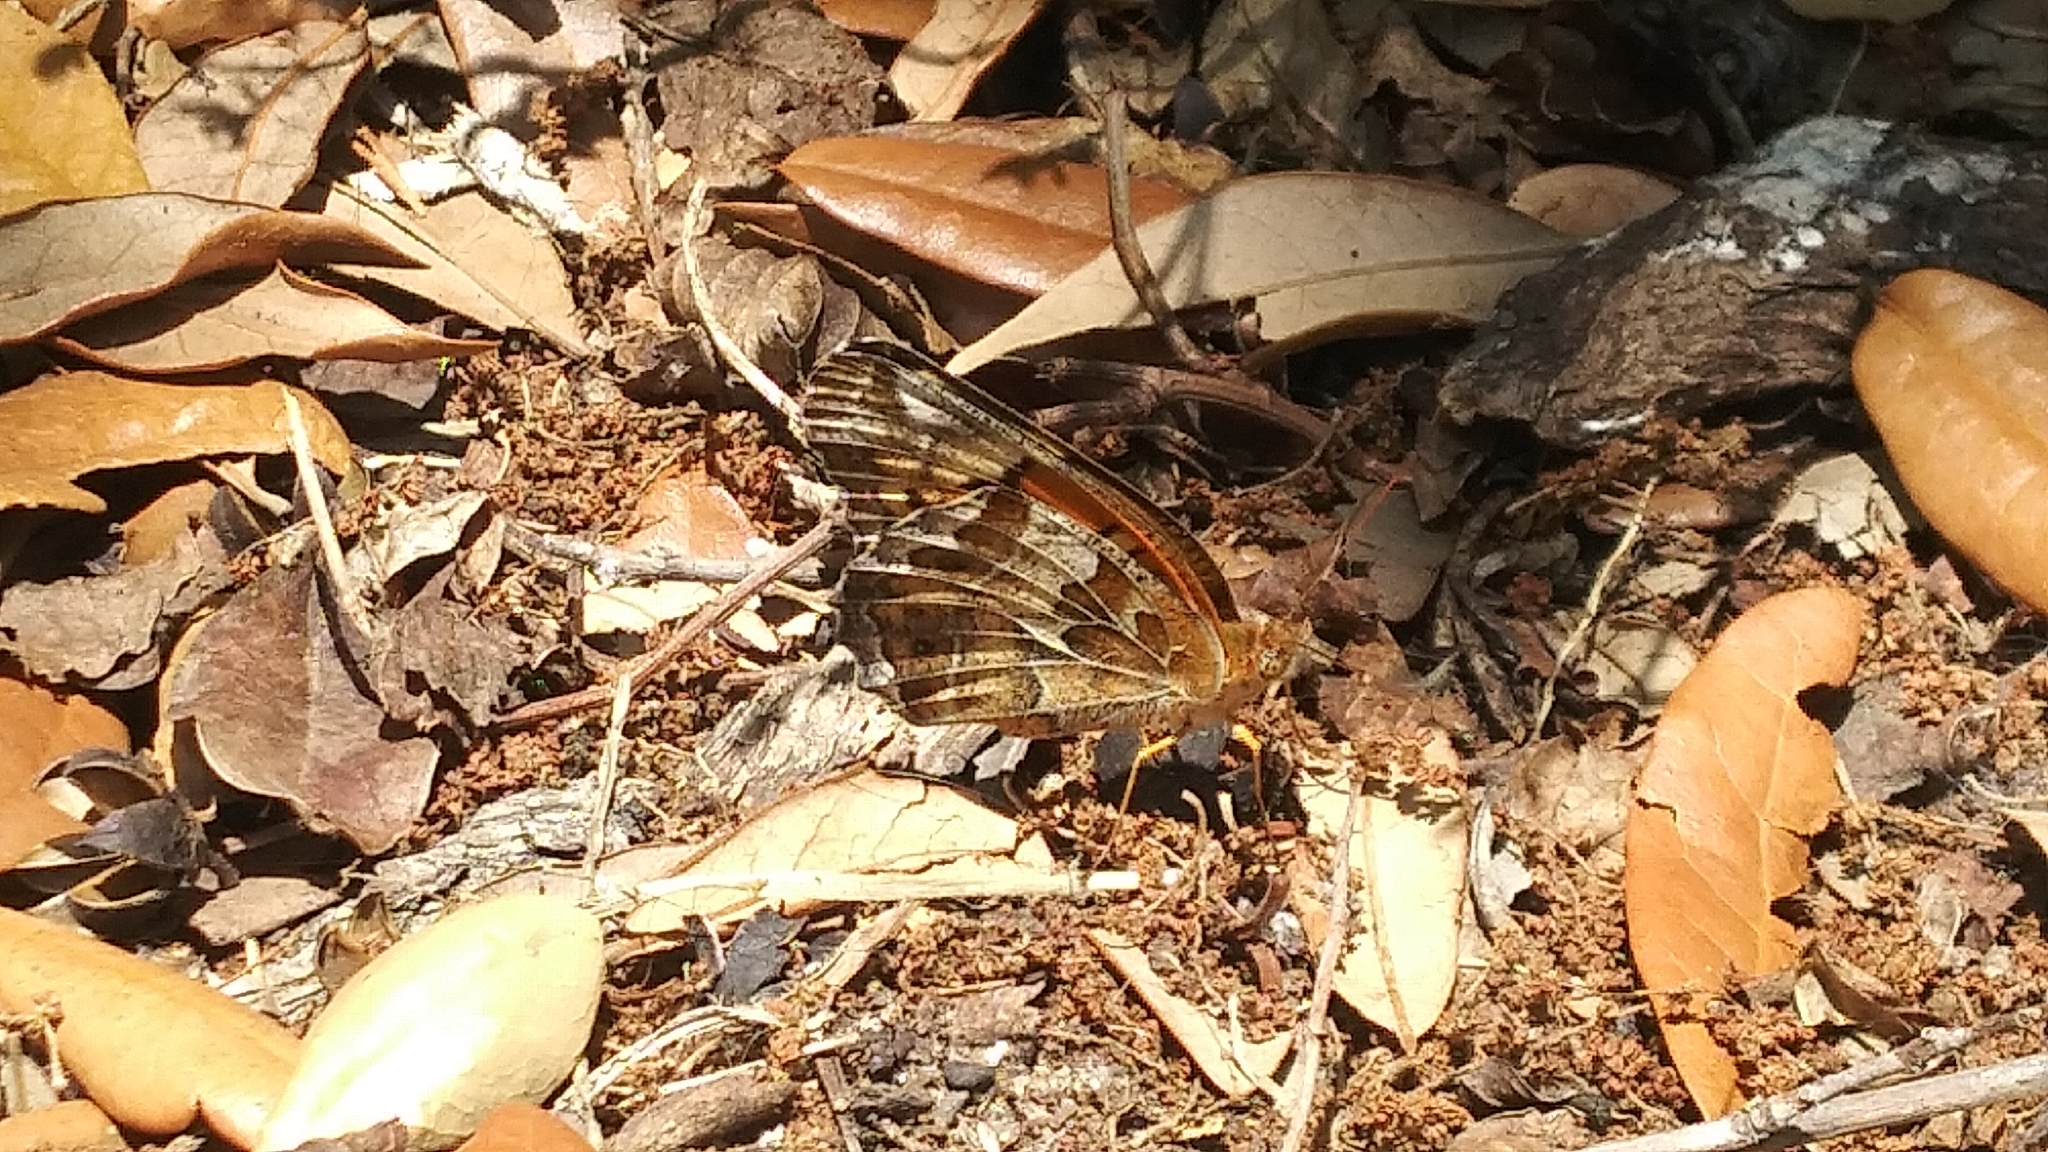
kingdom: Animalia
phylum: Arthropoda
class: Insecta
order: Lepidoptera
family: Nymphalidae
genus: Euptoieta
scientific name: Euptoieta claudia
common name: Variegated fritillary
